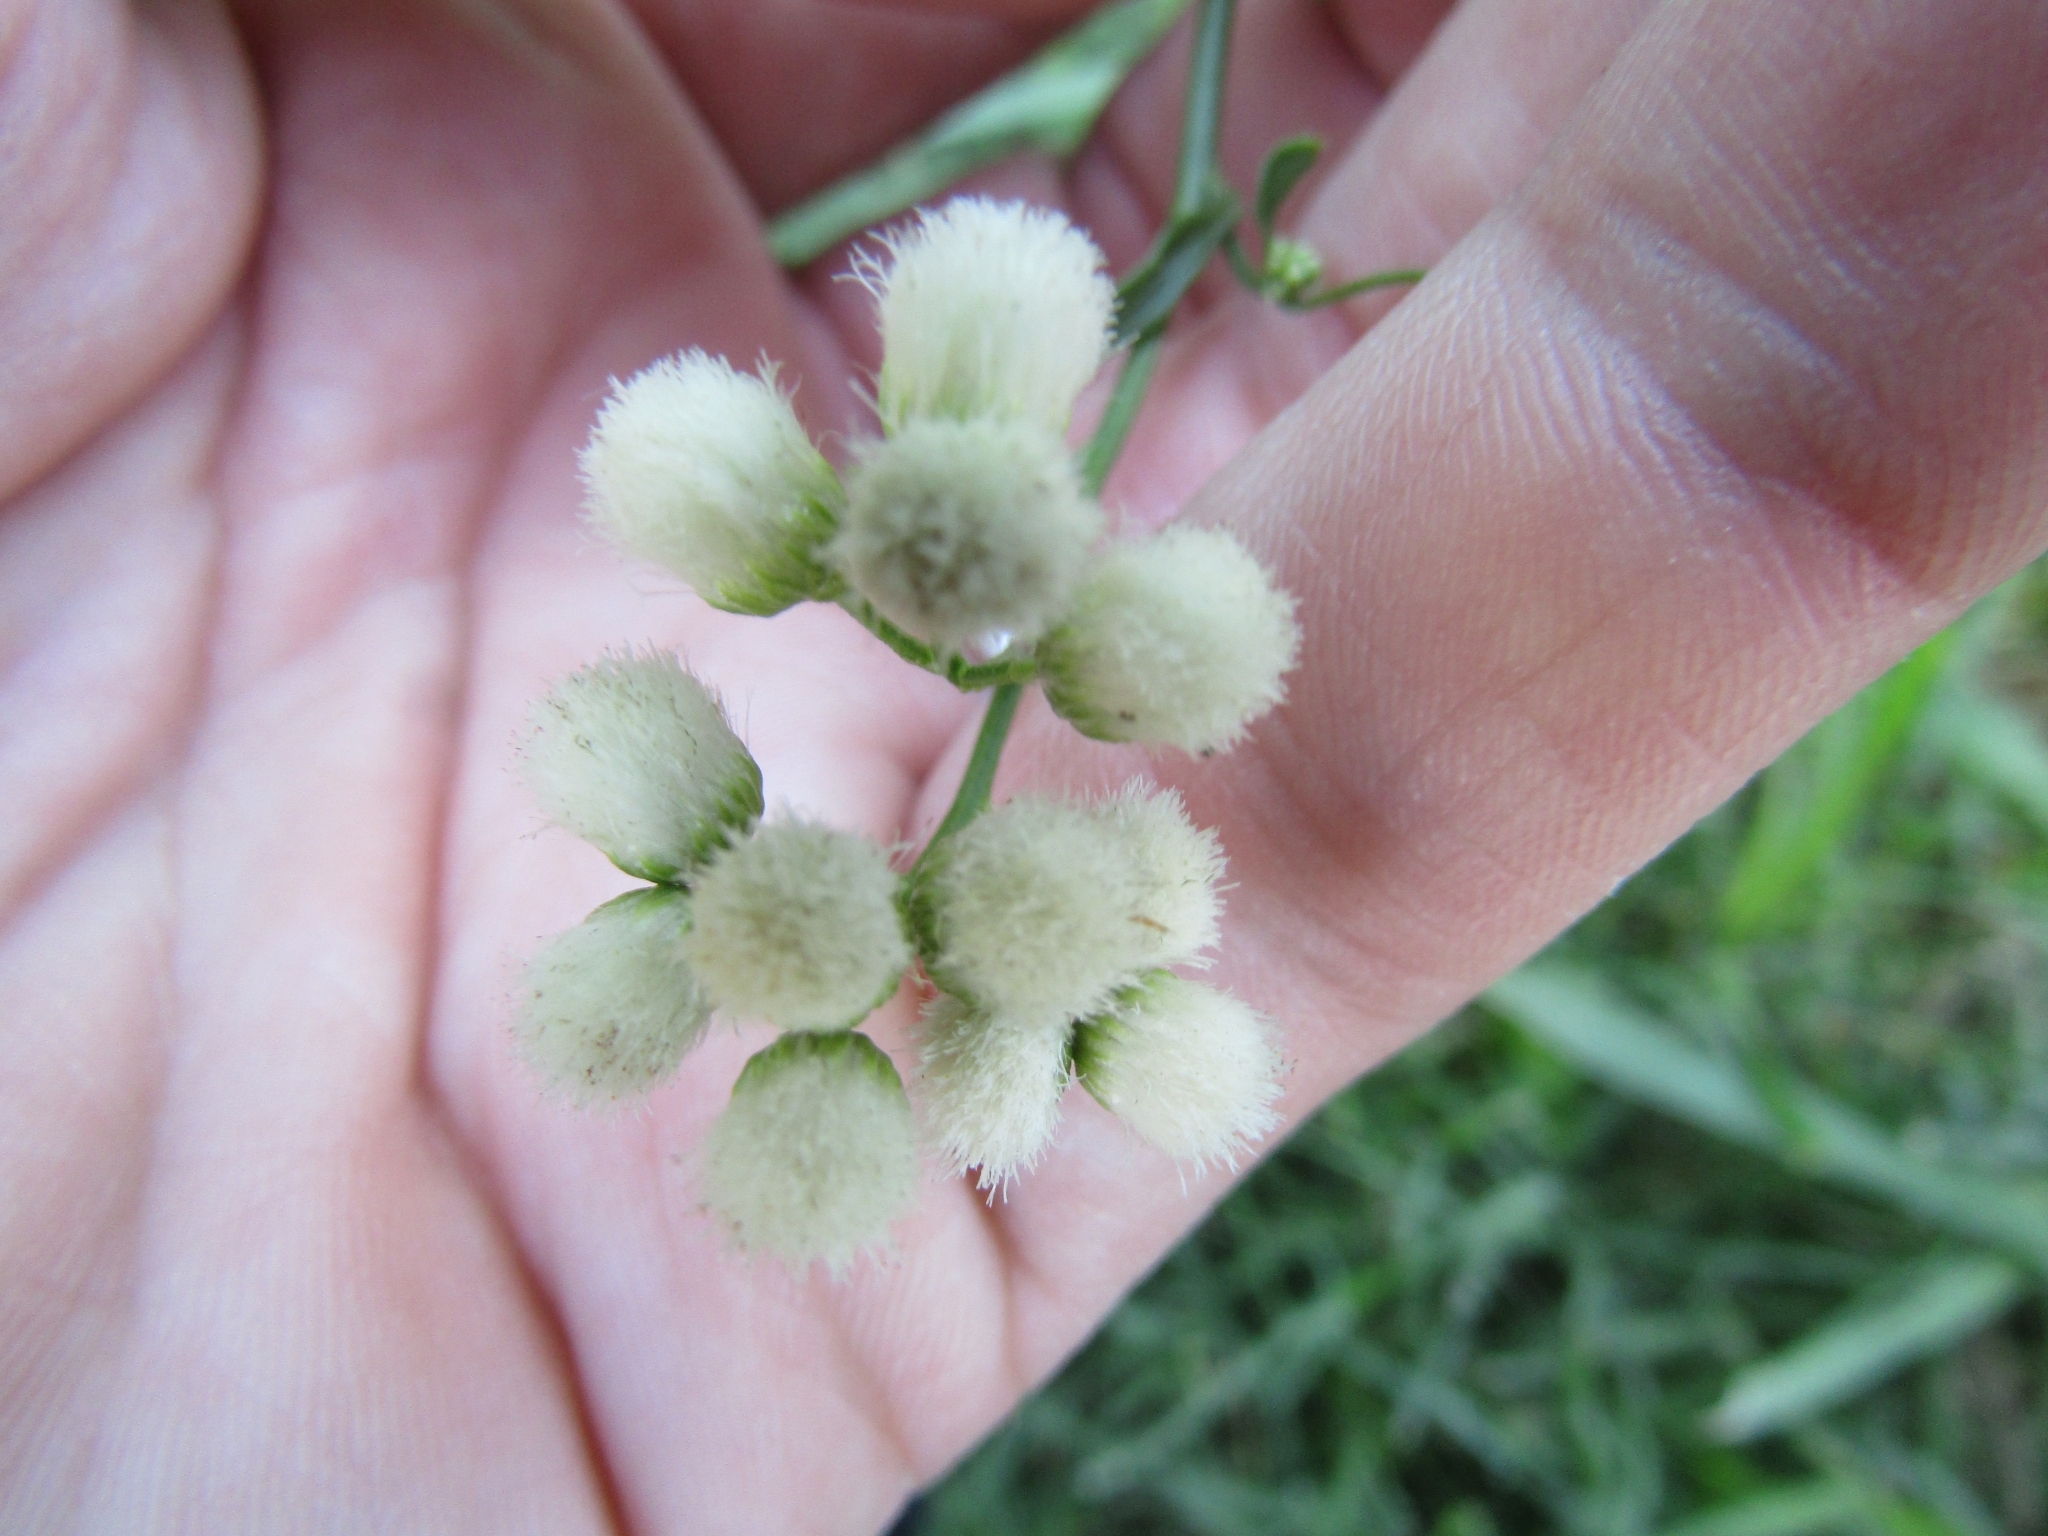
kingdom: Plantae
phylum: Tracheophyta
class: Magnoliopsida
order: Asterales
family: Asteraceae
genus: Baccharis
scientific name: Baccharis glutinosa
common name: Saltmarsh baccharis
